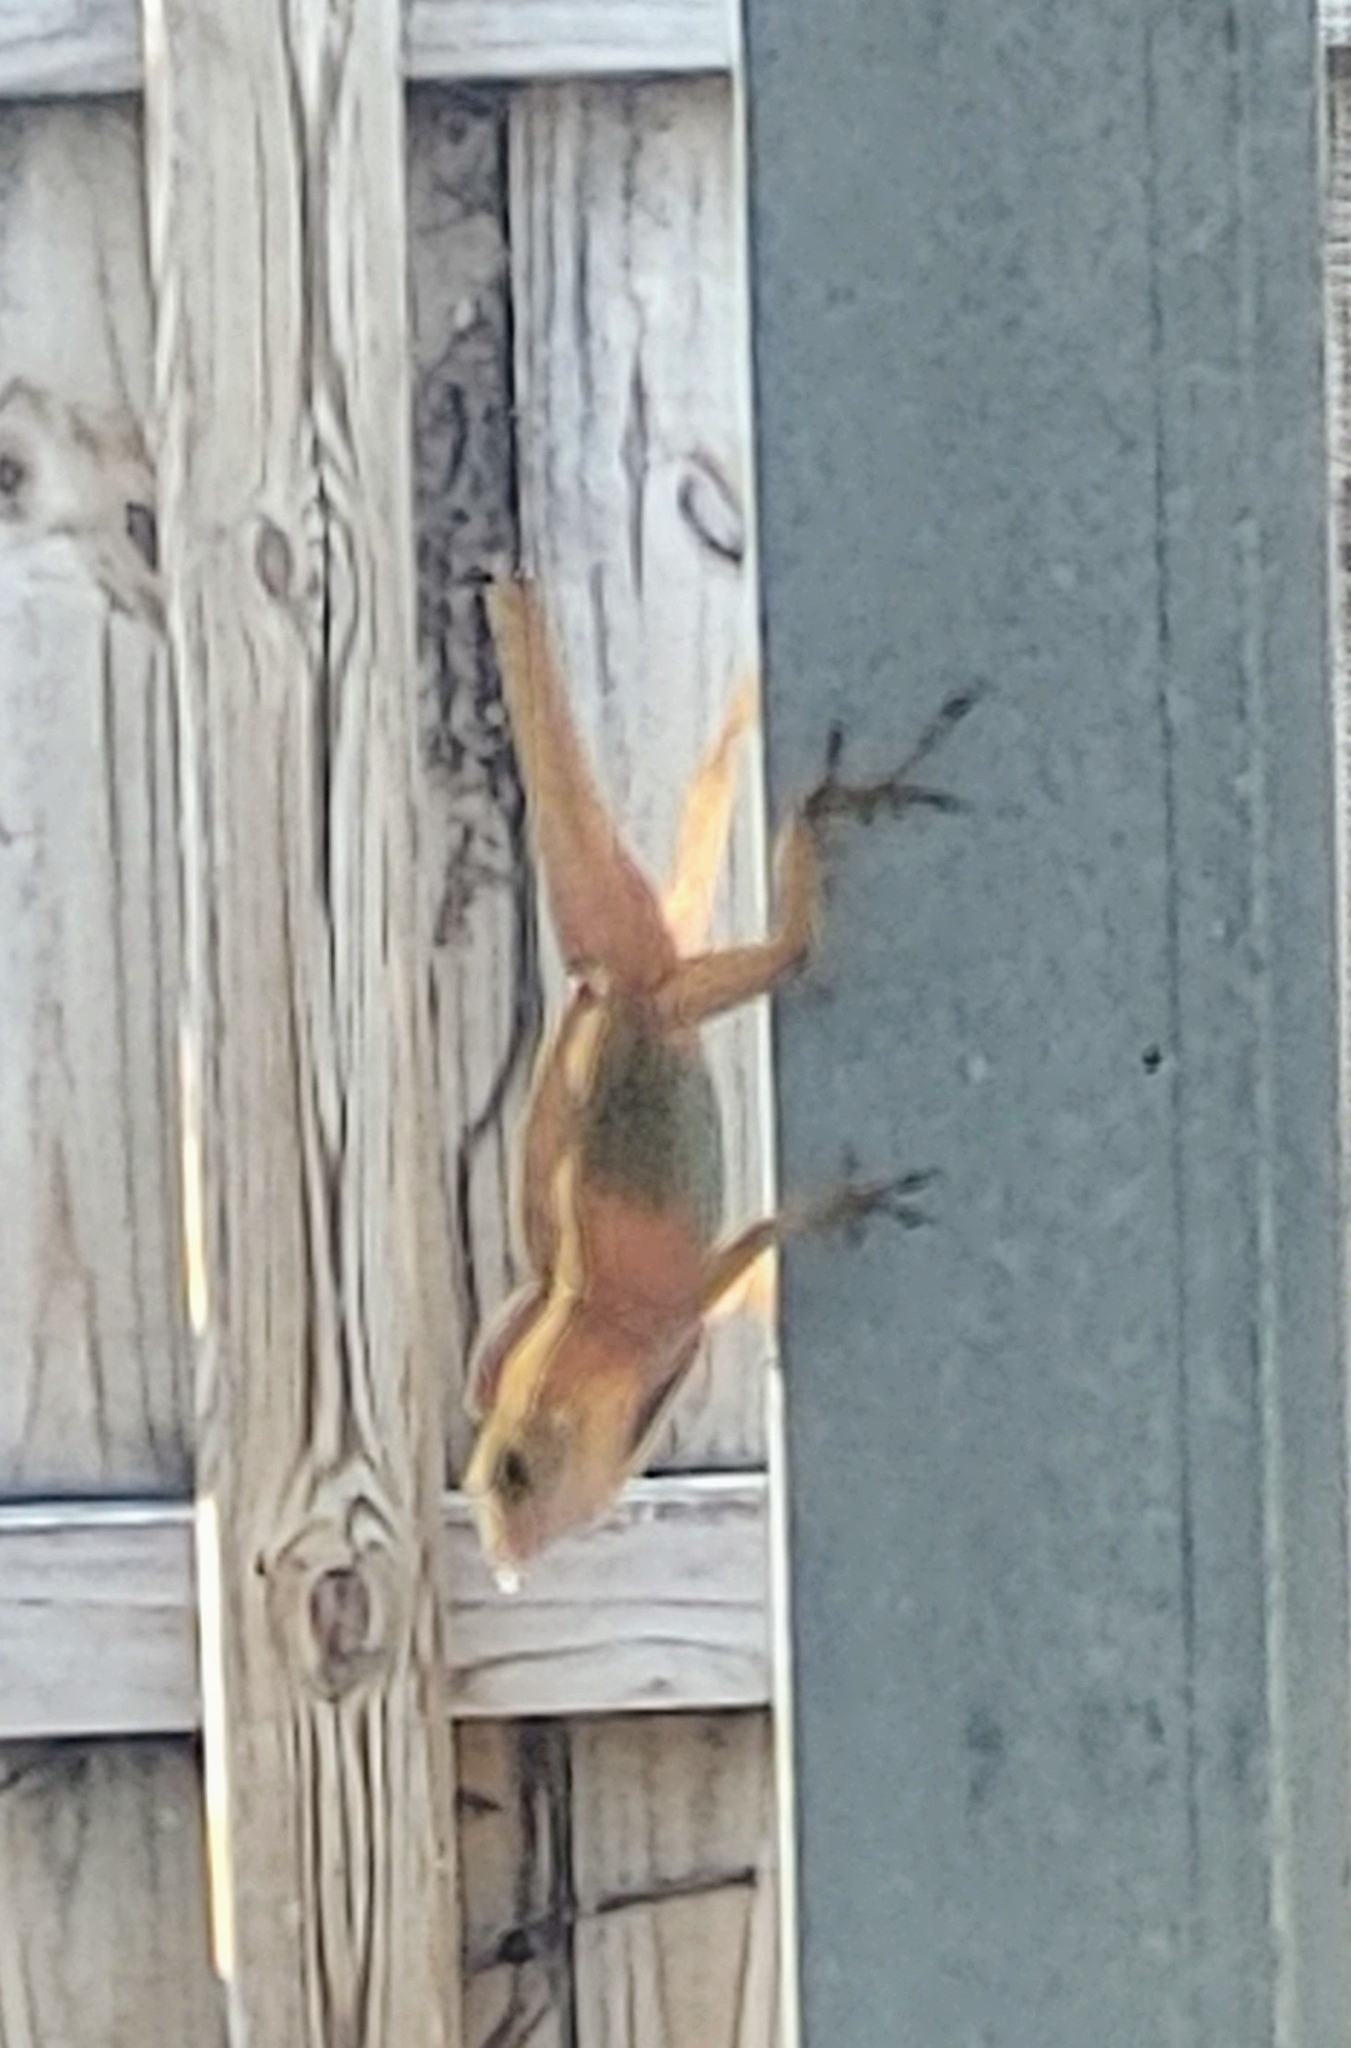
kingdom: Animalia
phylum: Chordata
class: Squamata
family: Dactyloidae
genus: Anolis
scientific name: Anolis sagrei
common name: Brown anole
